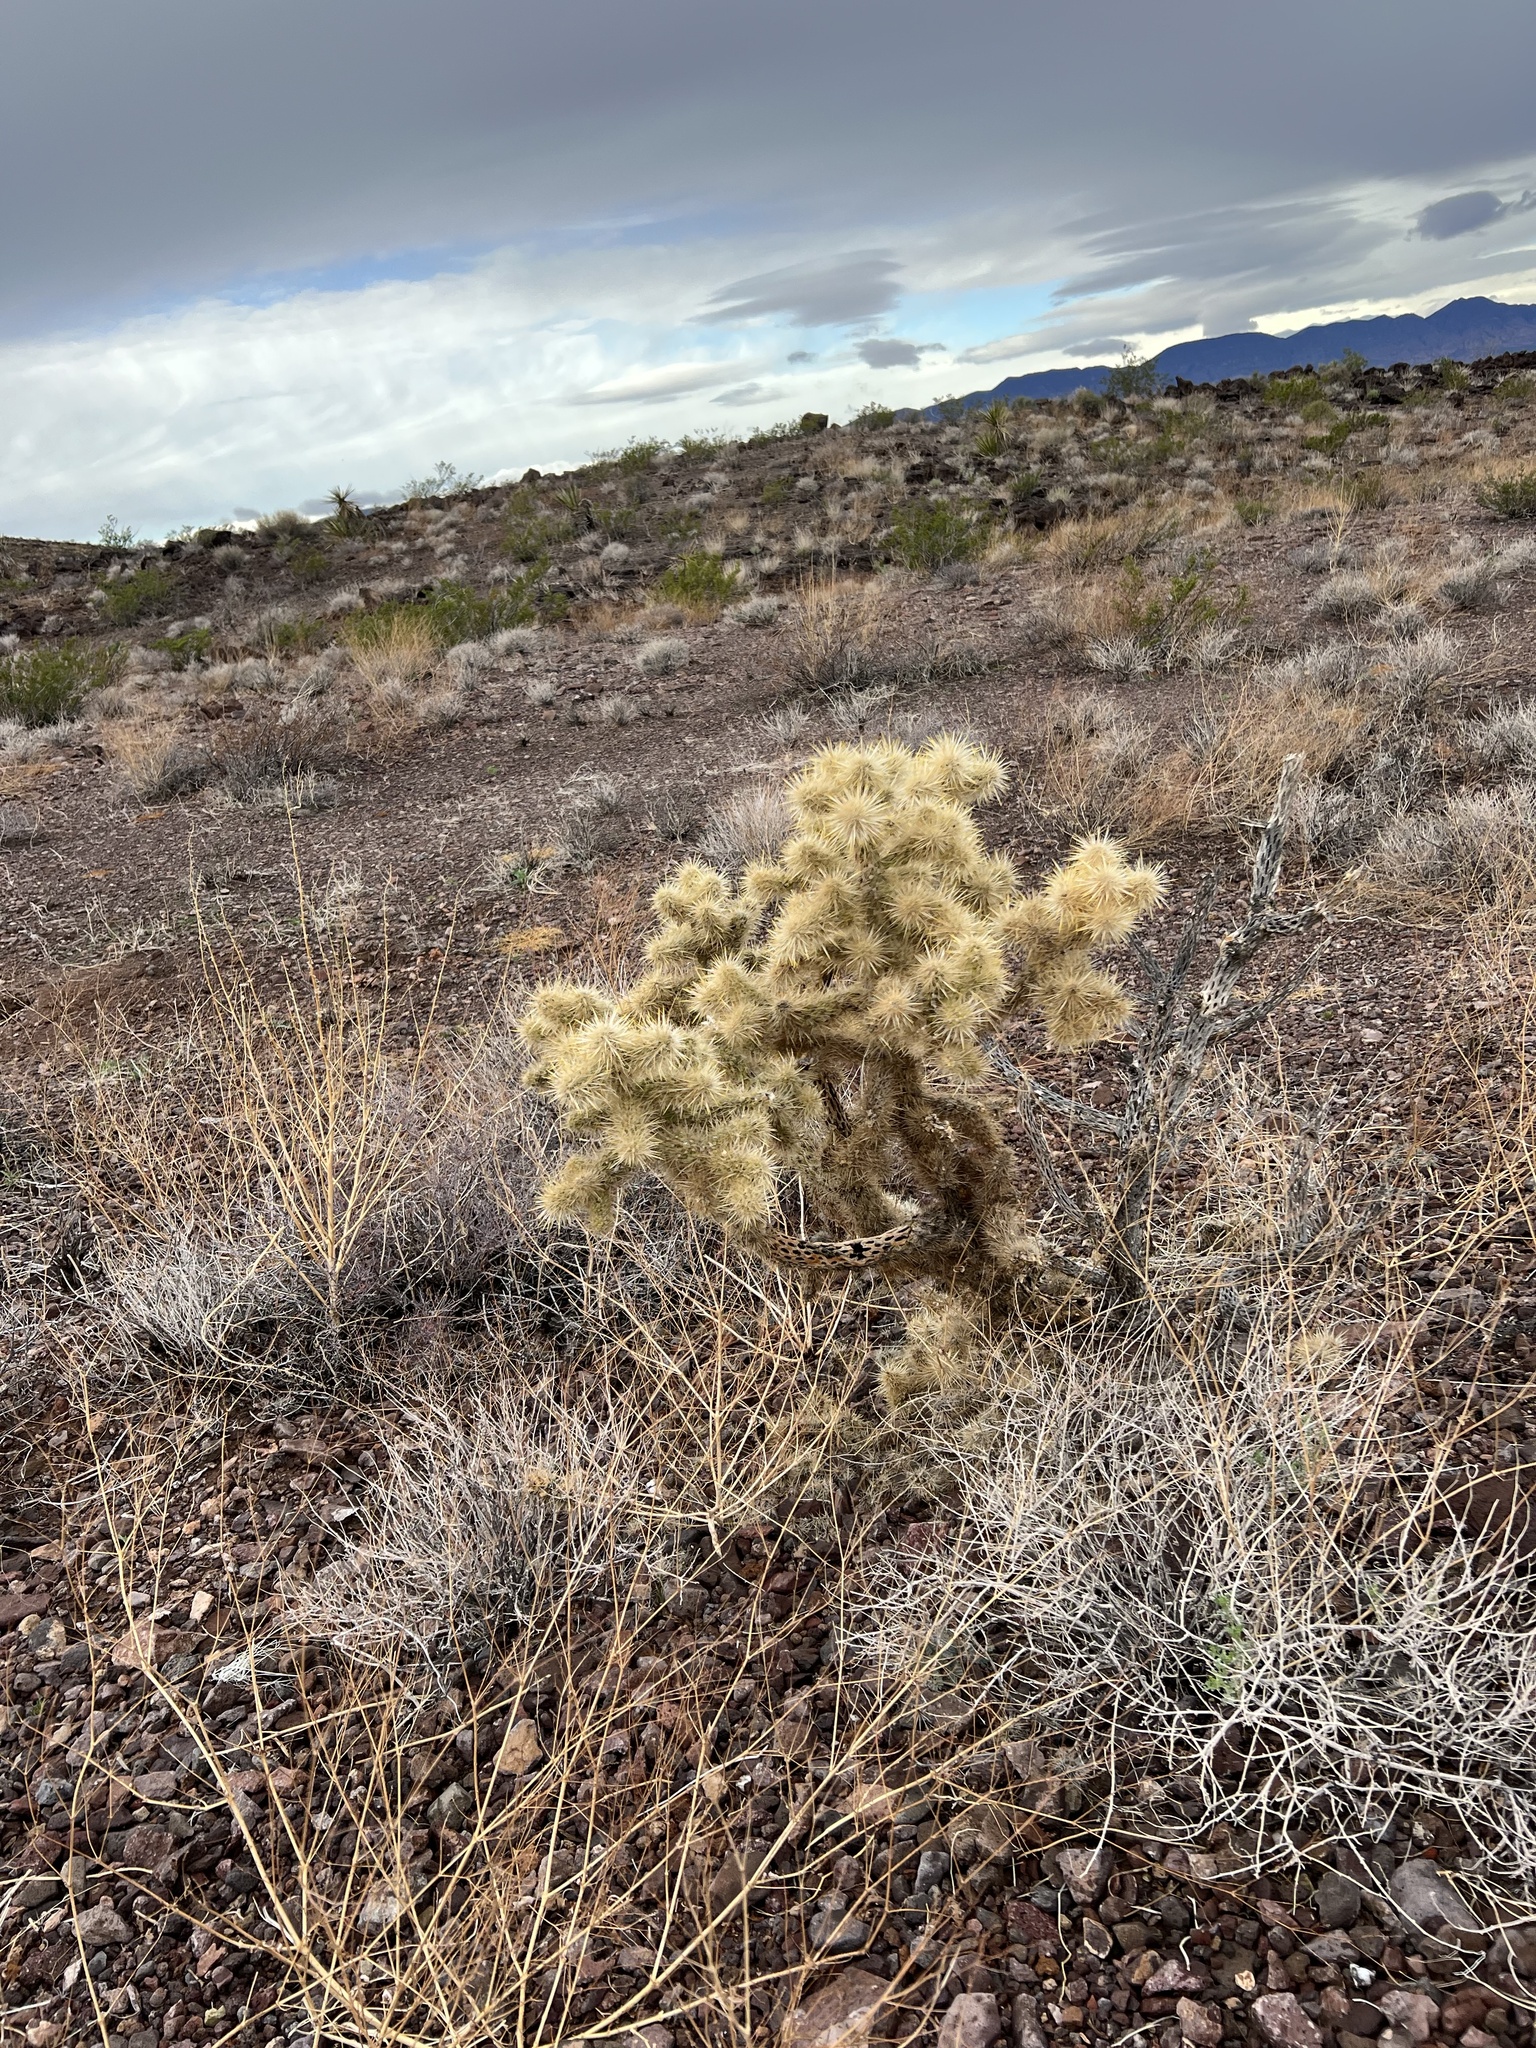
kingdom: Plantae
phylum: Tracheophyta
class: Magnoliopsida
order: Caryophyllales
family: Cactaceae
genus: Cylindropuntia
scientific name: Cylindropuntia echinocarpa
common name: Ground cholla
